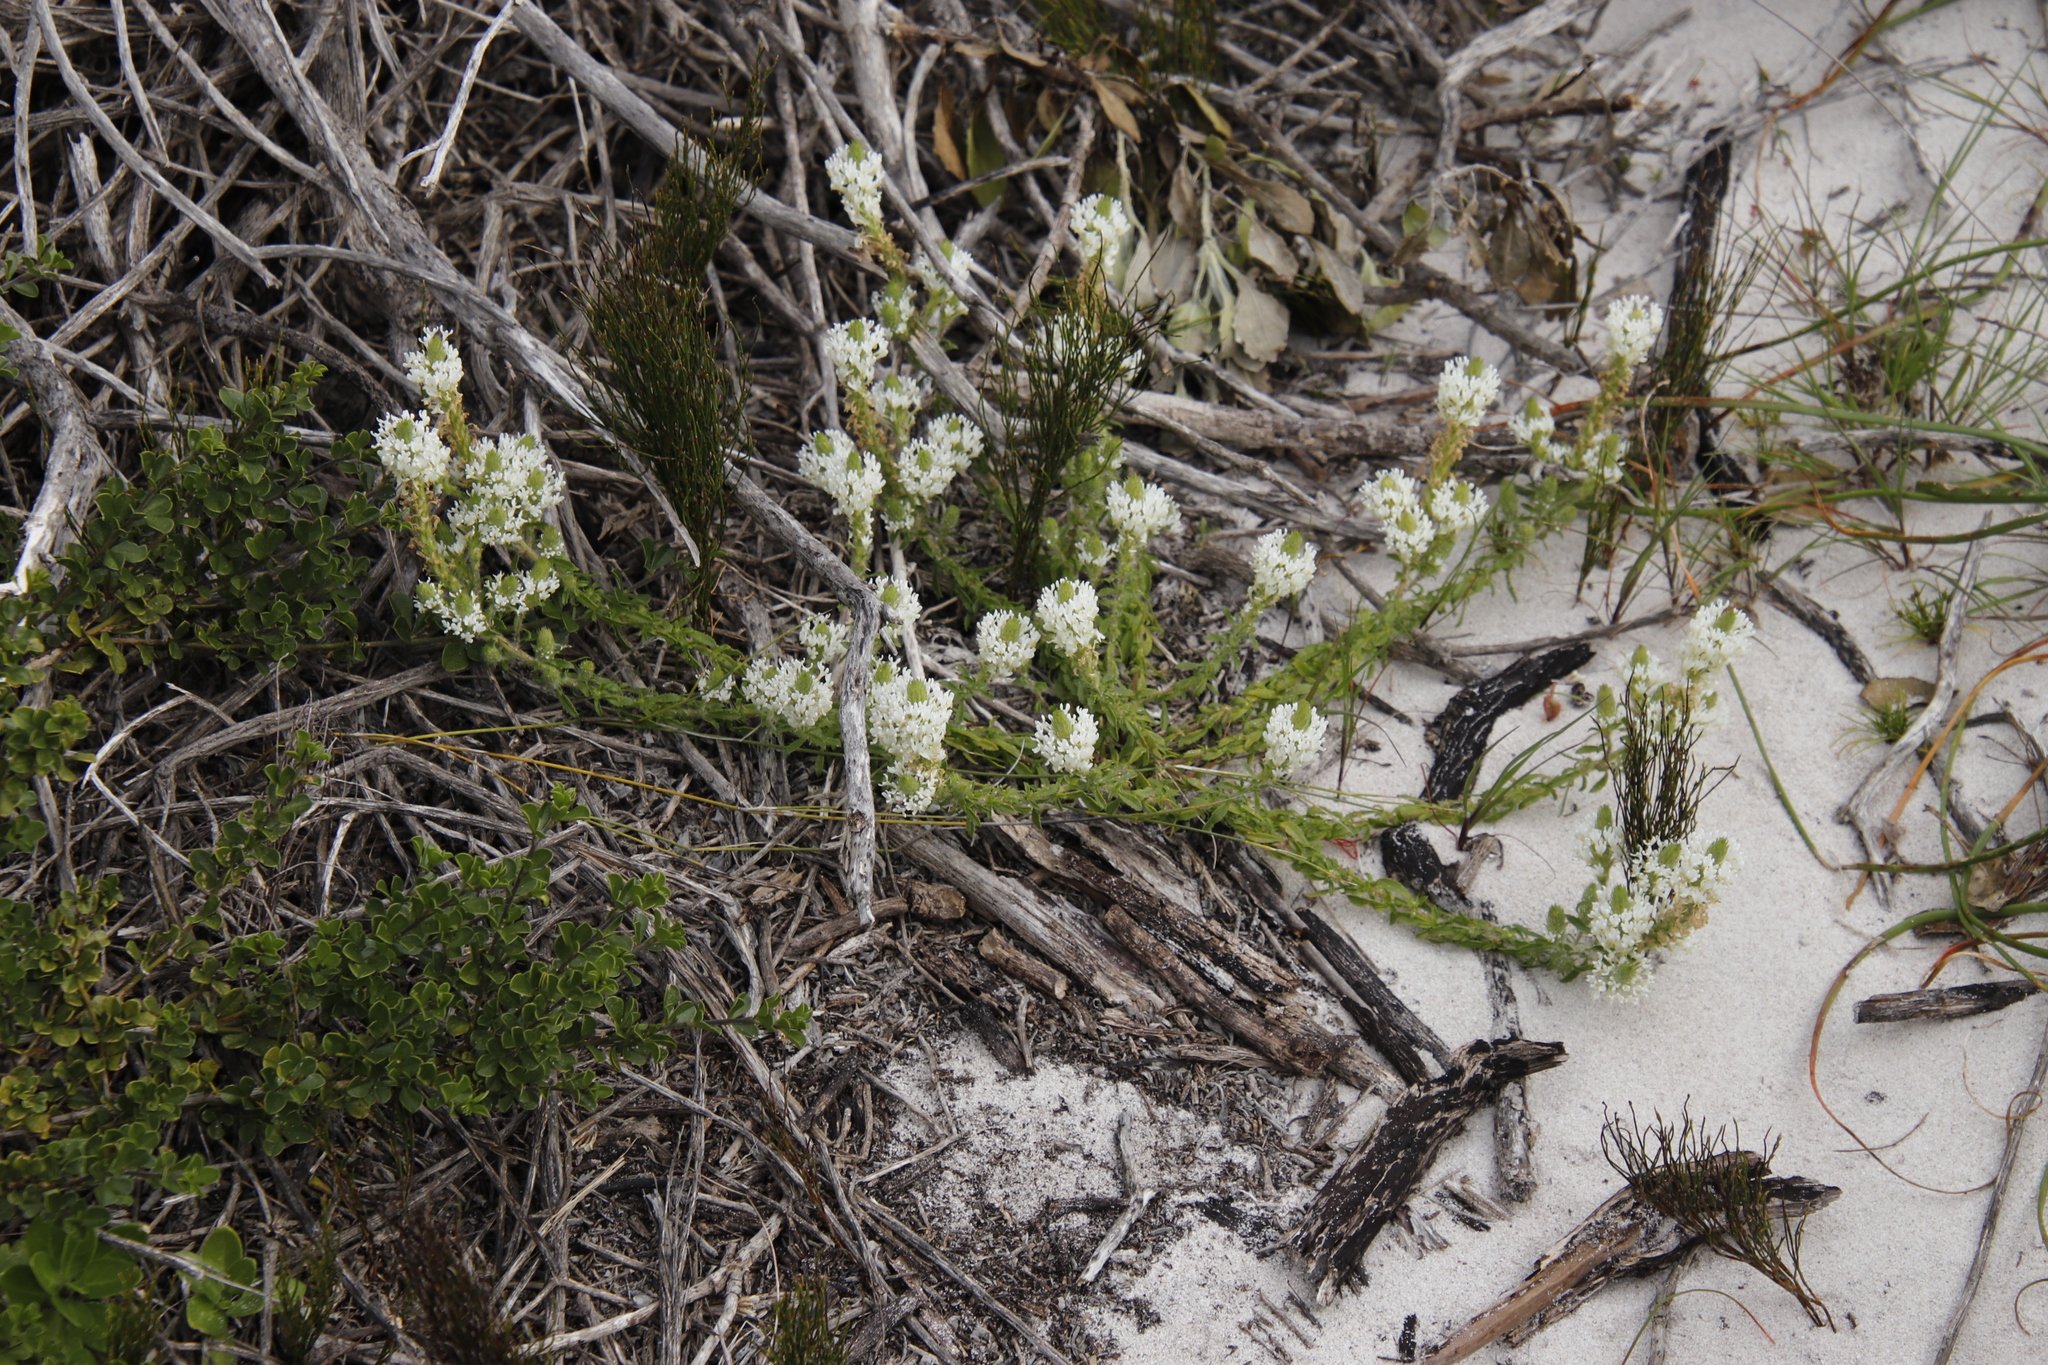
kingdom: Plantae
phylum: Tracheophyta
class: Magnoliopsida
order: Lamiales
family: Scrophulariaceae
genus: Dischisma
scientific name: Dischisma ciliatum
